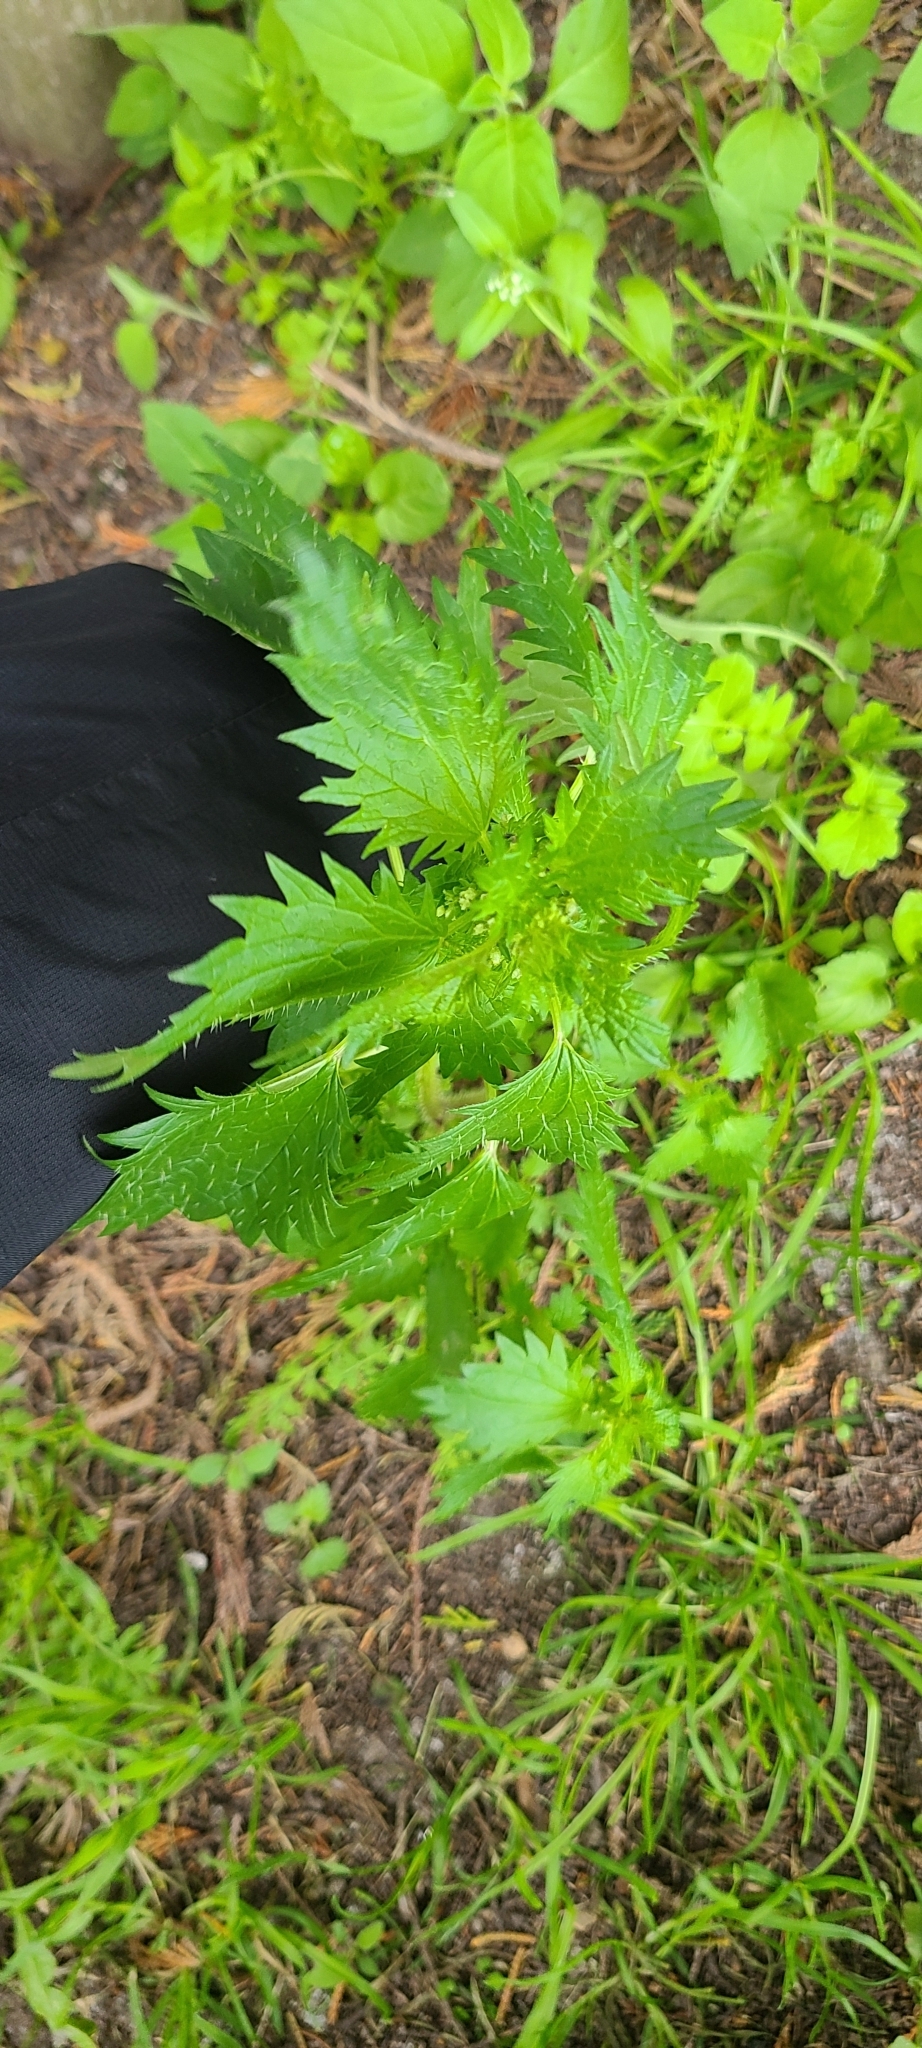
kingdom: Plantae
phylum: Tracheophyta
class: Magnoliopsida
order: Rosales
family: Urticaceae
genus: Urtica
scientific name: Urtica urens
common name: Dwarf nettle
